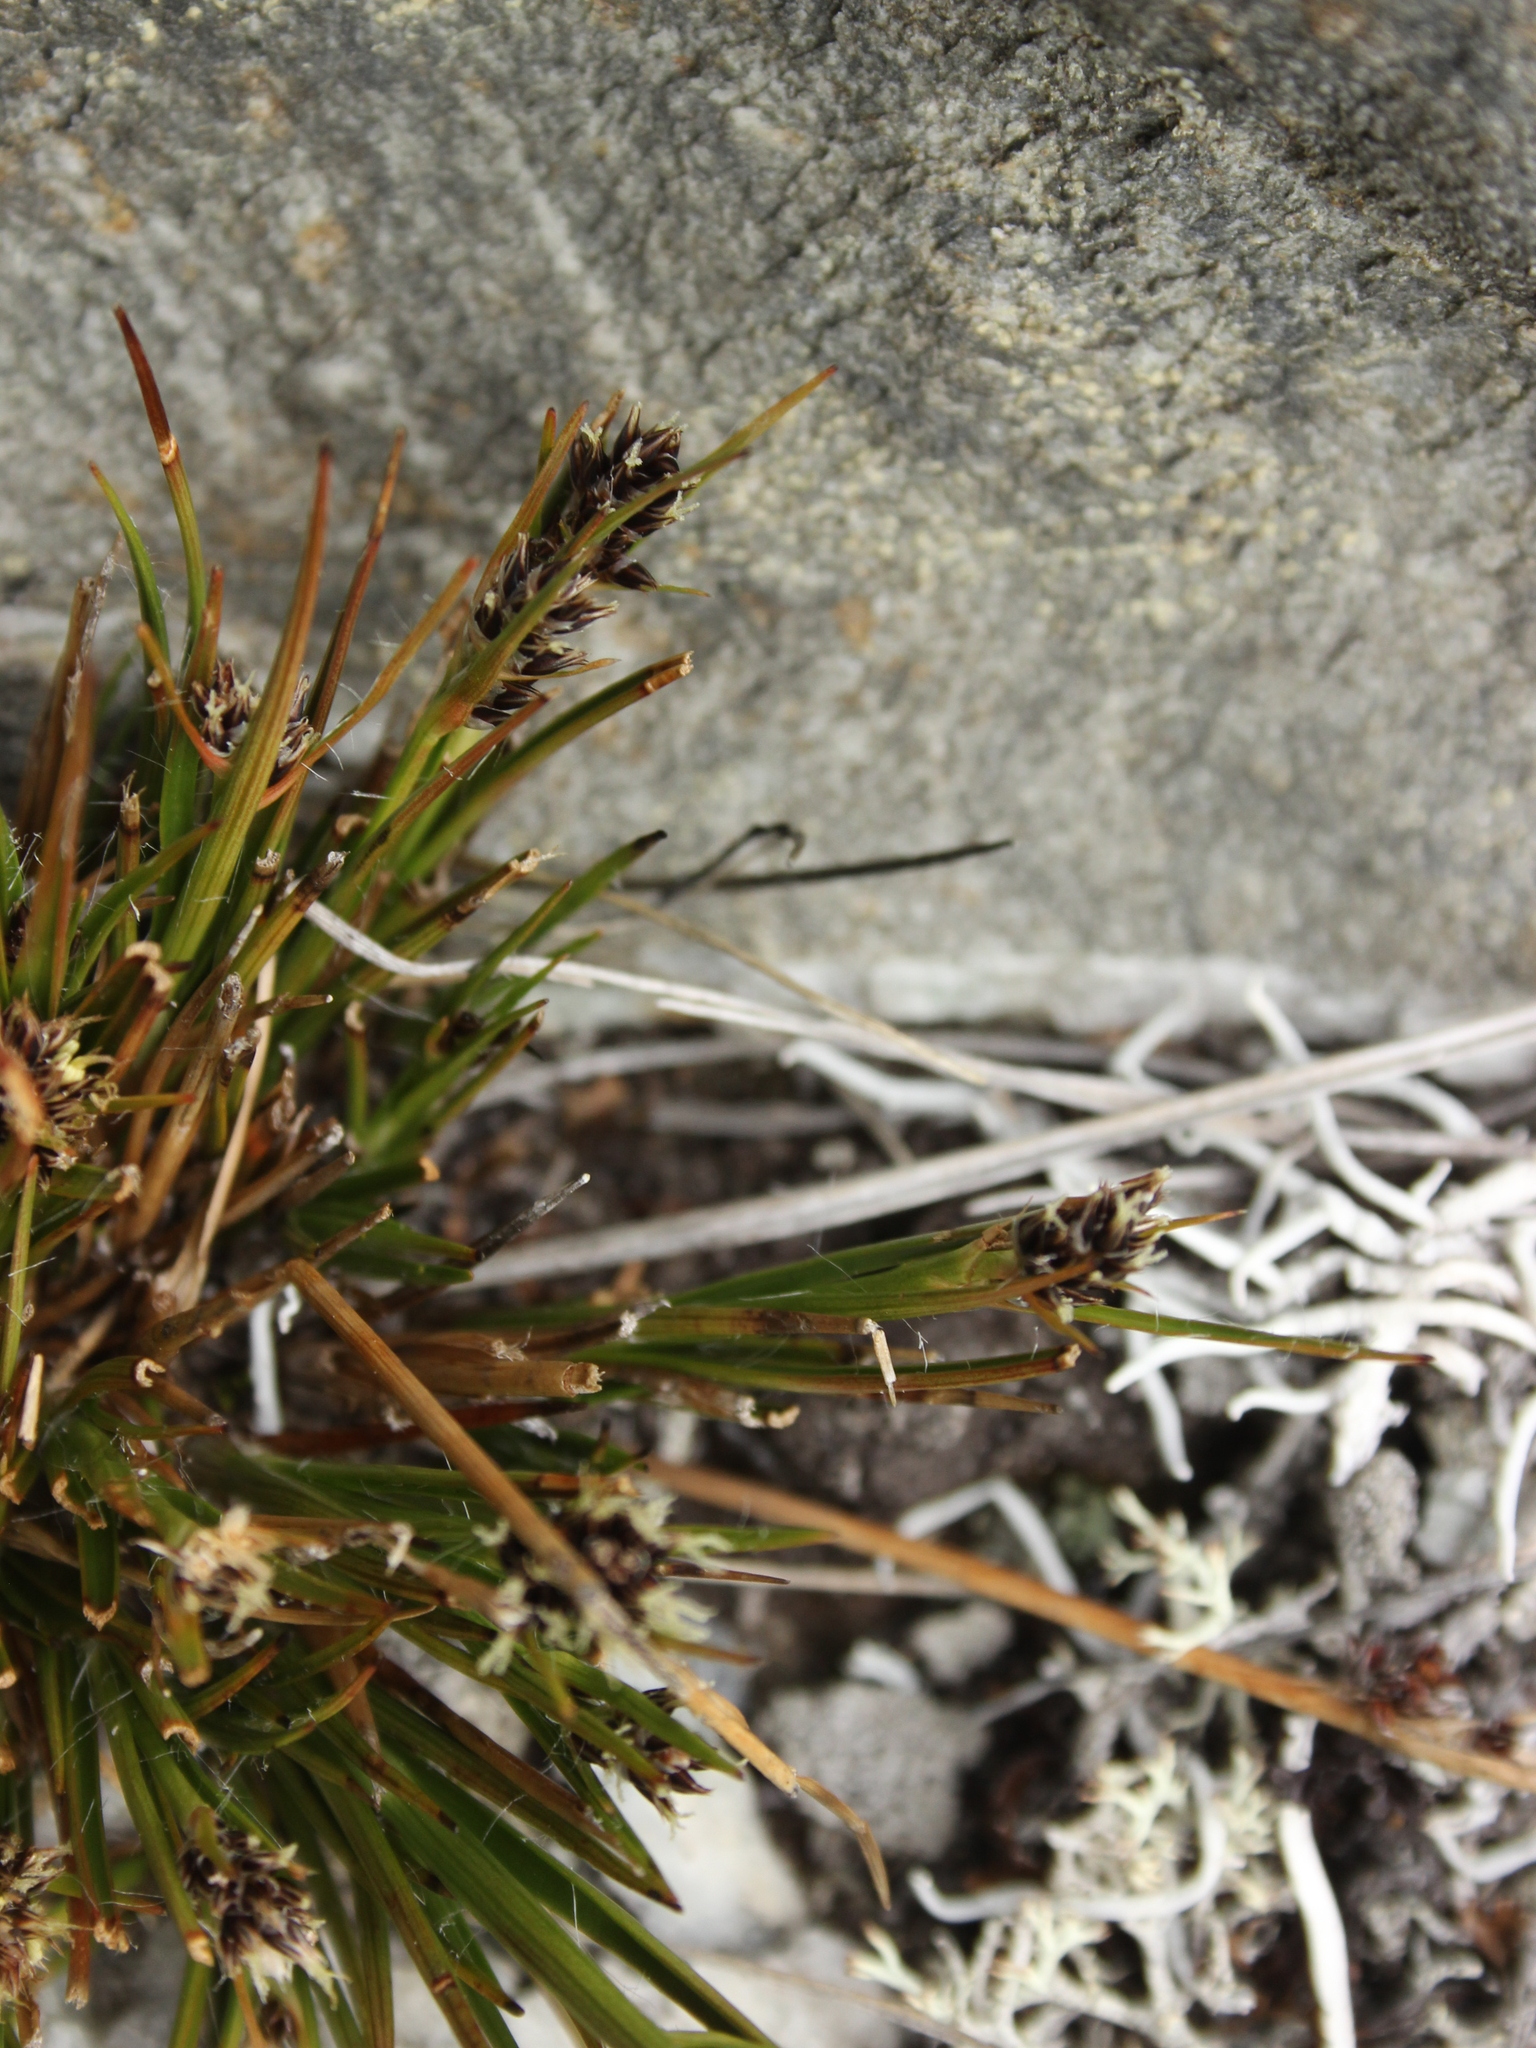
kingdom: Plantae
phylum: Tracheophyta
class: Liliopsida
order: Poales
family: Juncaceae
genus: Luzula
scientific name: Luzula pumila
